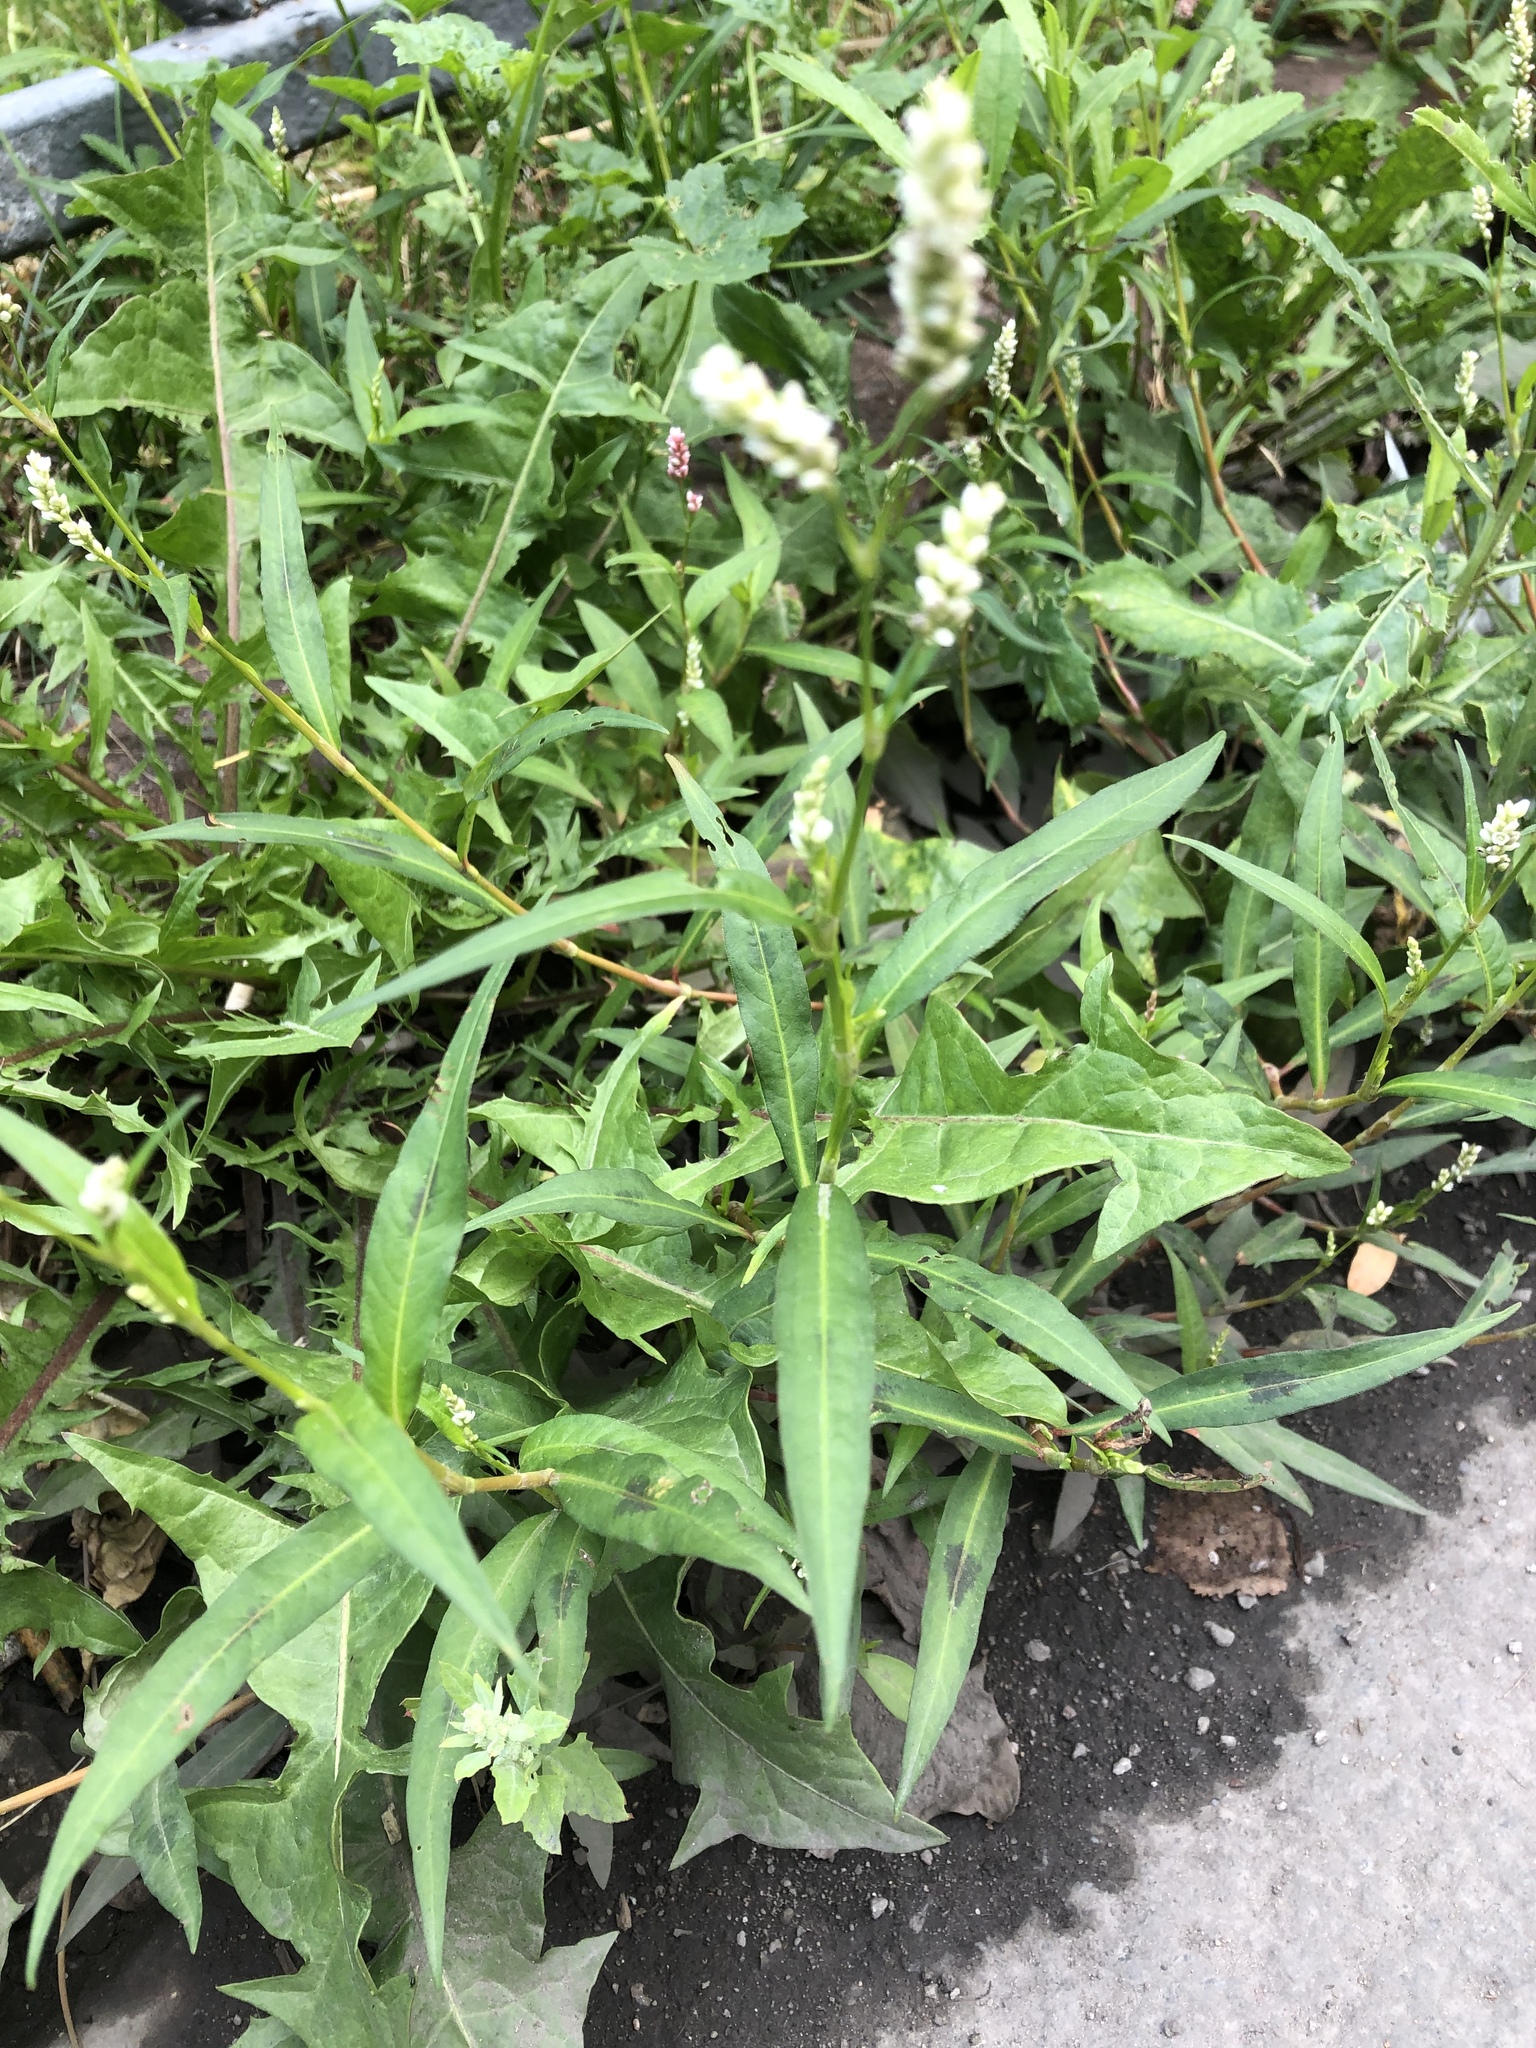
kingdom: Plantae
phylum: Tracheophyta
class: Magnoliopsida
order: Caryophyllales
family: Polygonaceae
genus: Persicaria
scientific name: Persicaria maculosa
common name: Redshank
